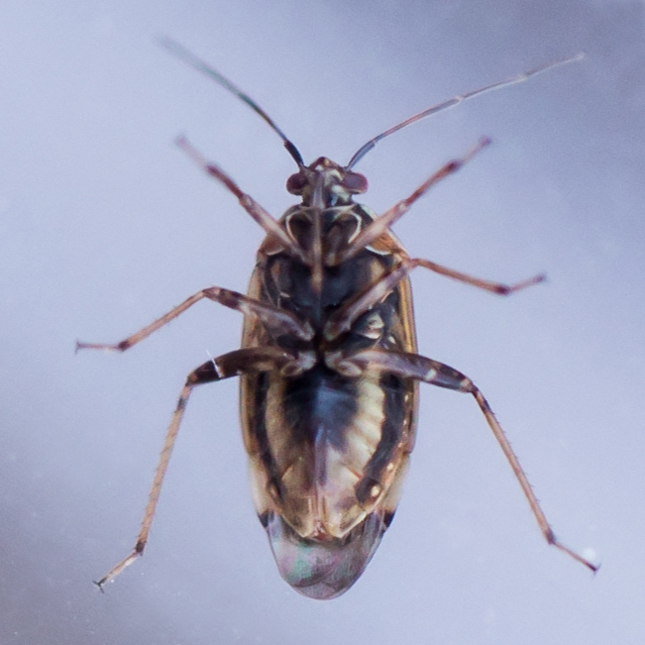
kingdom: Animalia
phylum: Arthropoda
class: Insecta
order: Hemiptera
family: Miridae
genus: Lygus
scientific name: Lygus lineolaris
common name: North american tarnished plant bug
